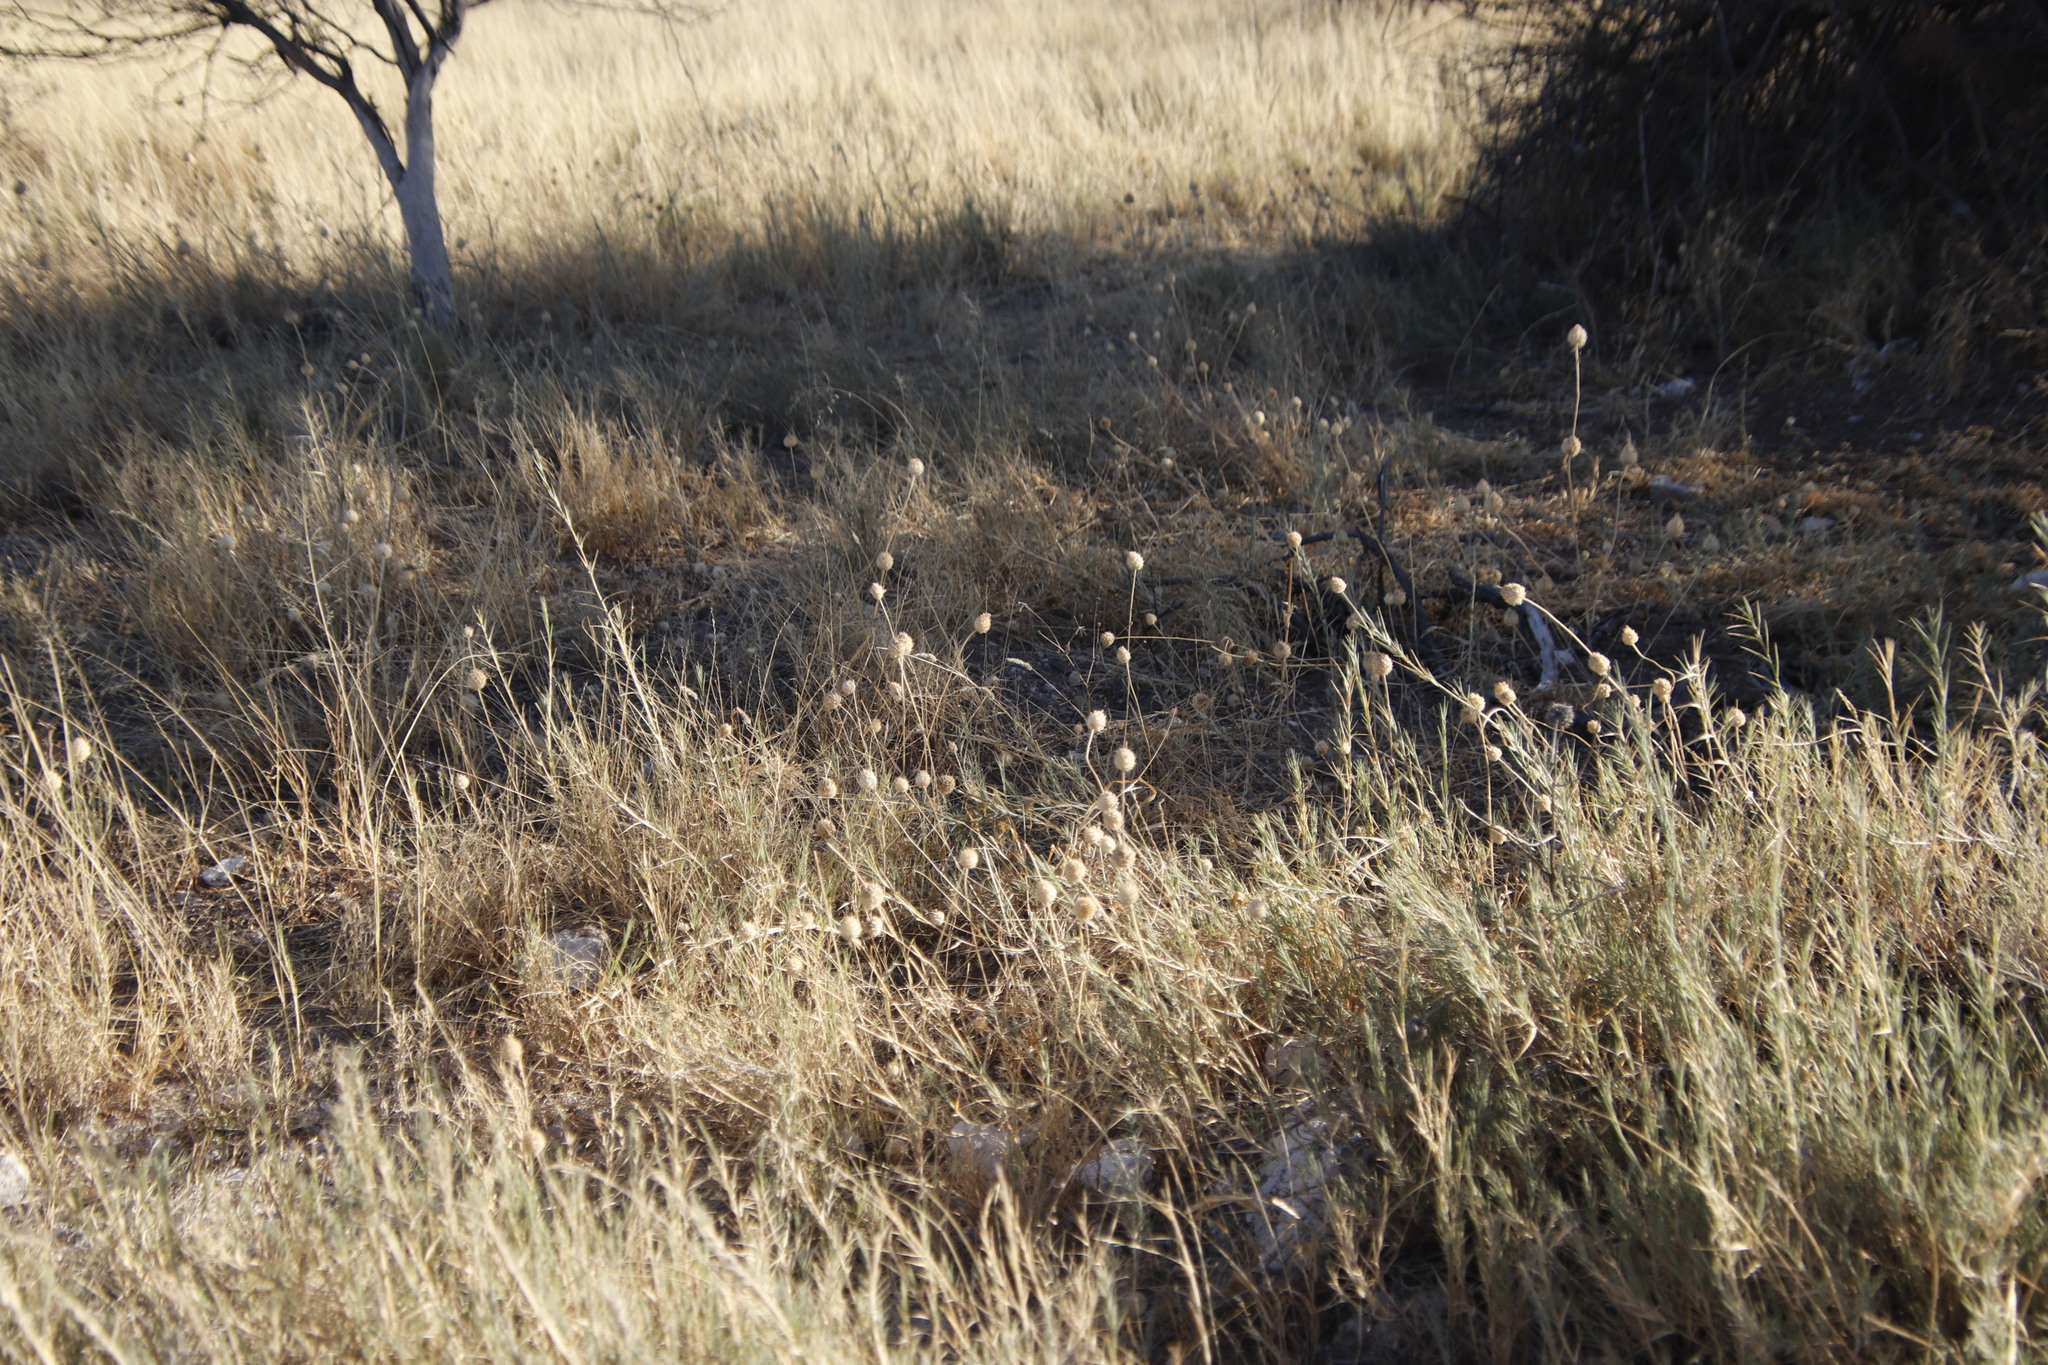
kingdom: Plantae
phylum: Tracheophyta
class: Magnoliopsida
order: Lamiales
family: Lamiaceae
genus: Acrotome
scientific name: Acrotome inflata
